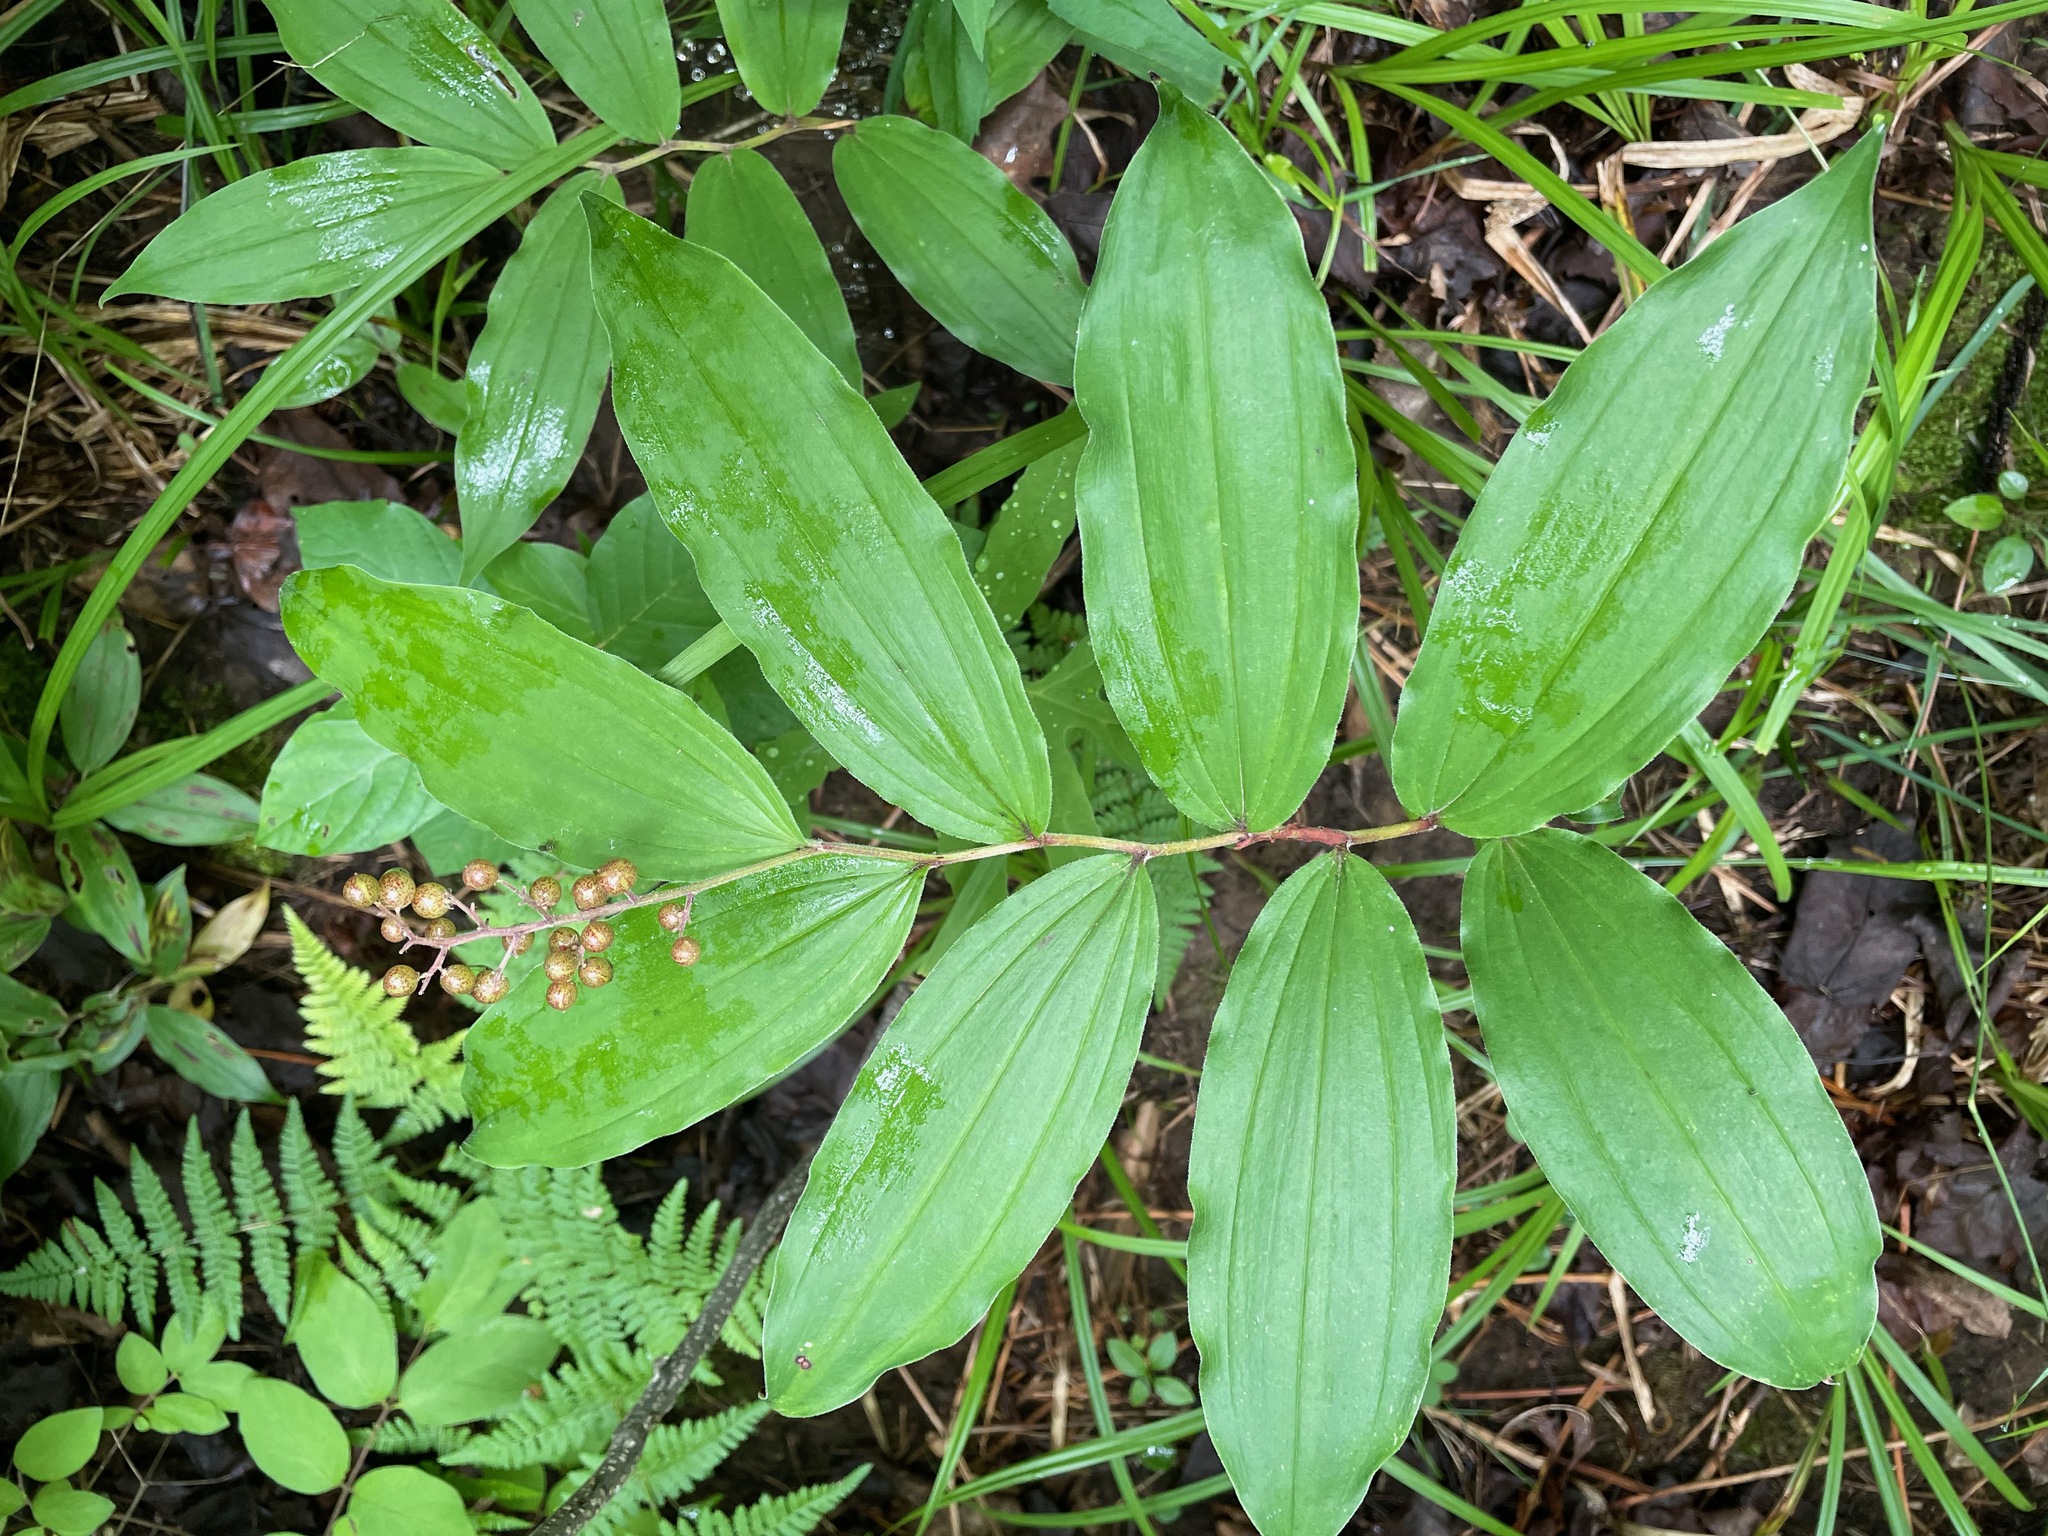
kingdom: Plantae
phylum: Tracheophyta
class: Liliopsida
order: Asparagales
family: Asparagaceae
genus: Maianthemum
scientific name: Maianthemum racemosum
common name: False spikenard
